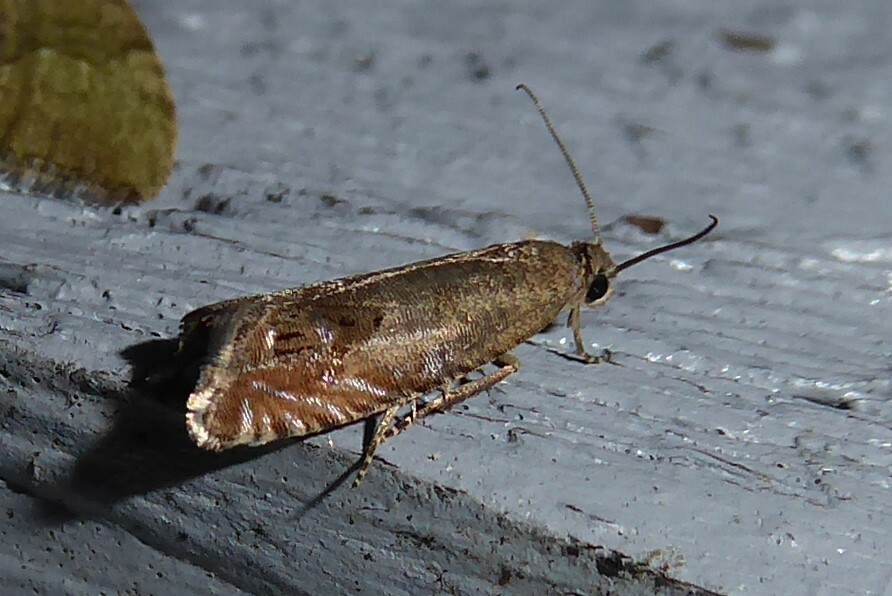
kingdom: Animalia
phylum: Arthropoda
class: Insecta
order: Lepidoptera
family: Tortricidae
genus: Cydia
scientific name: Cydia succedana
